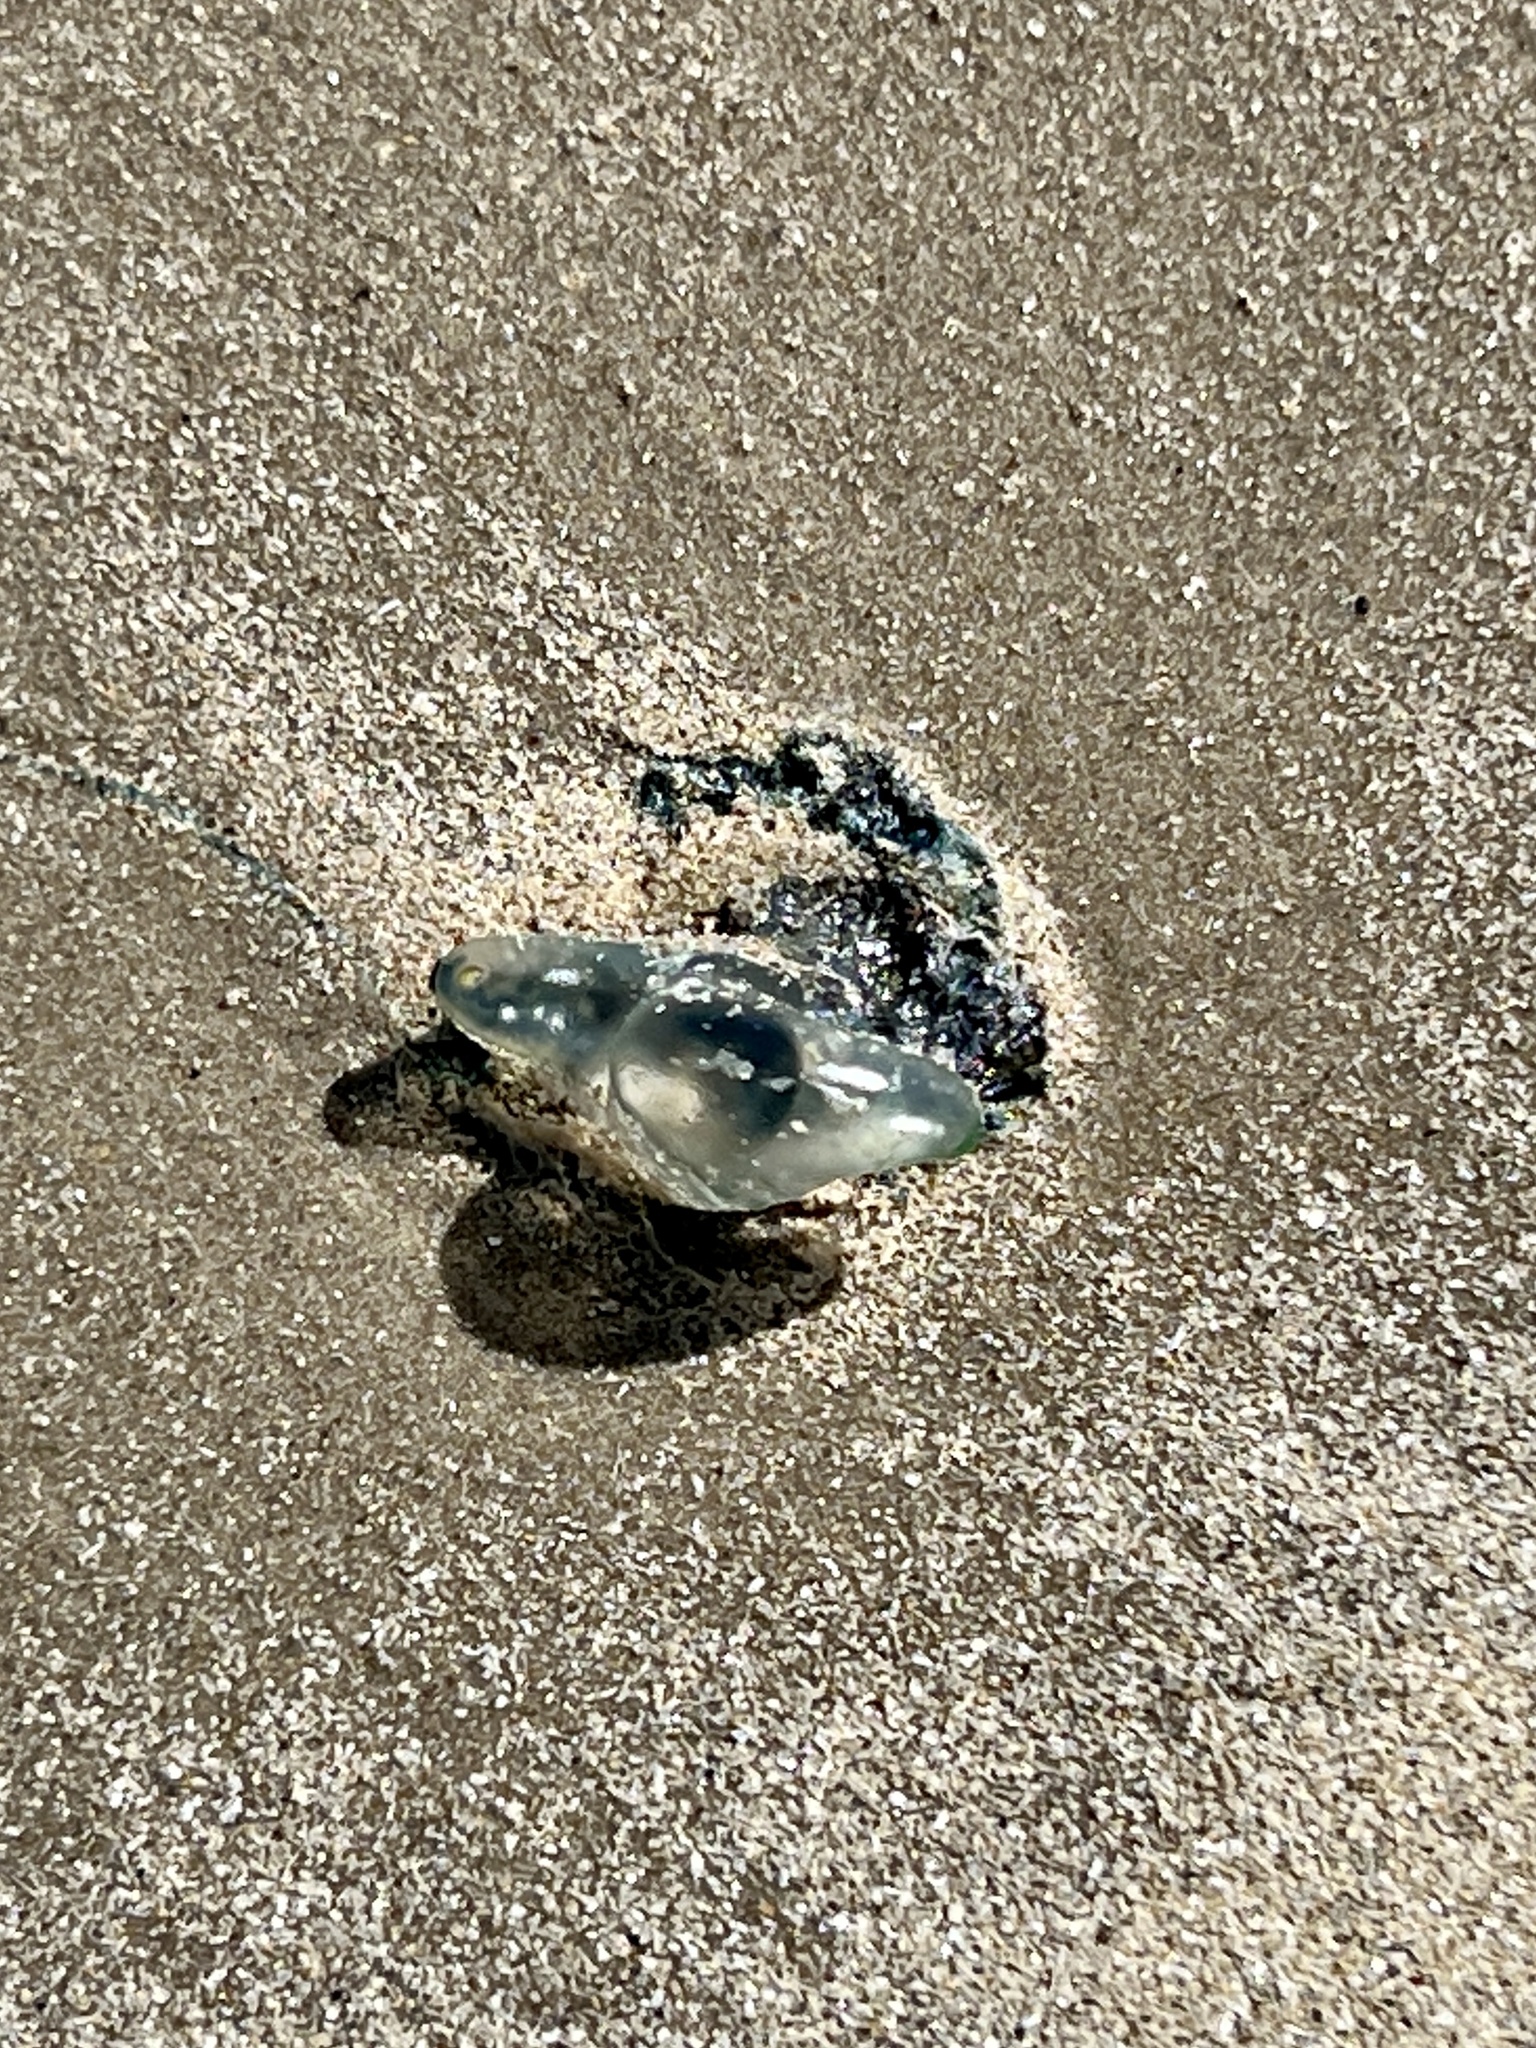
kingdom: Animalia
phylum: Cnidaria
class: Hydrozoa
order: Siphonophorae
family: Physaliidae
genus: Physalia
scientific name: Physalia physalis
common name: Portuguese man-of-war
